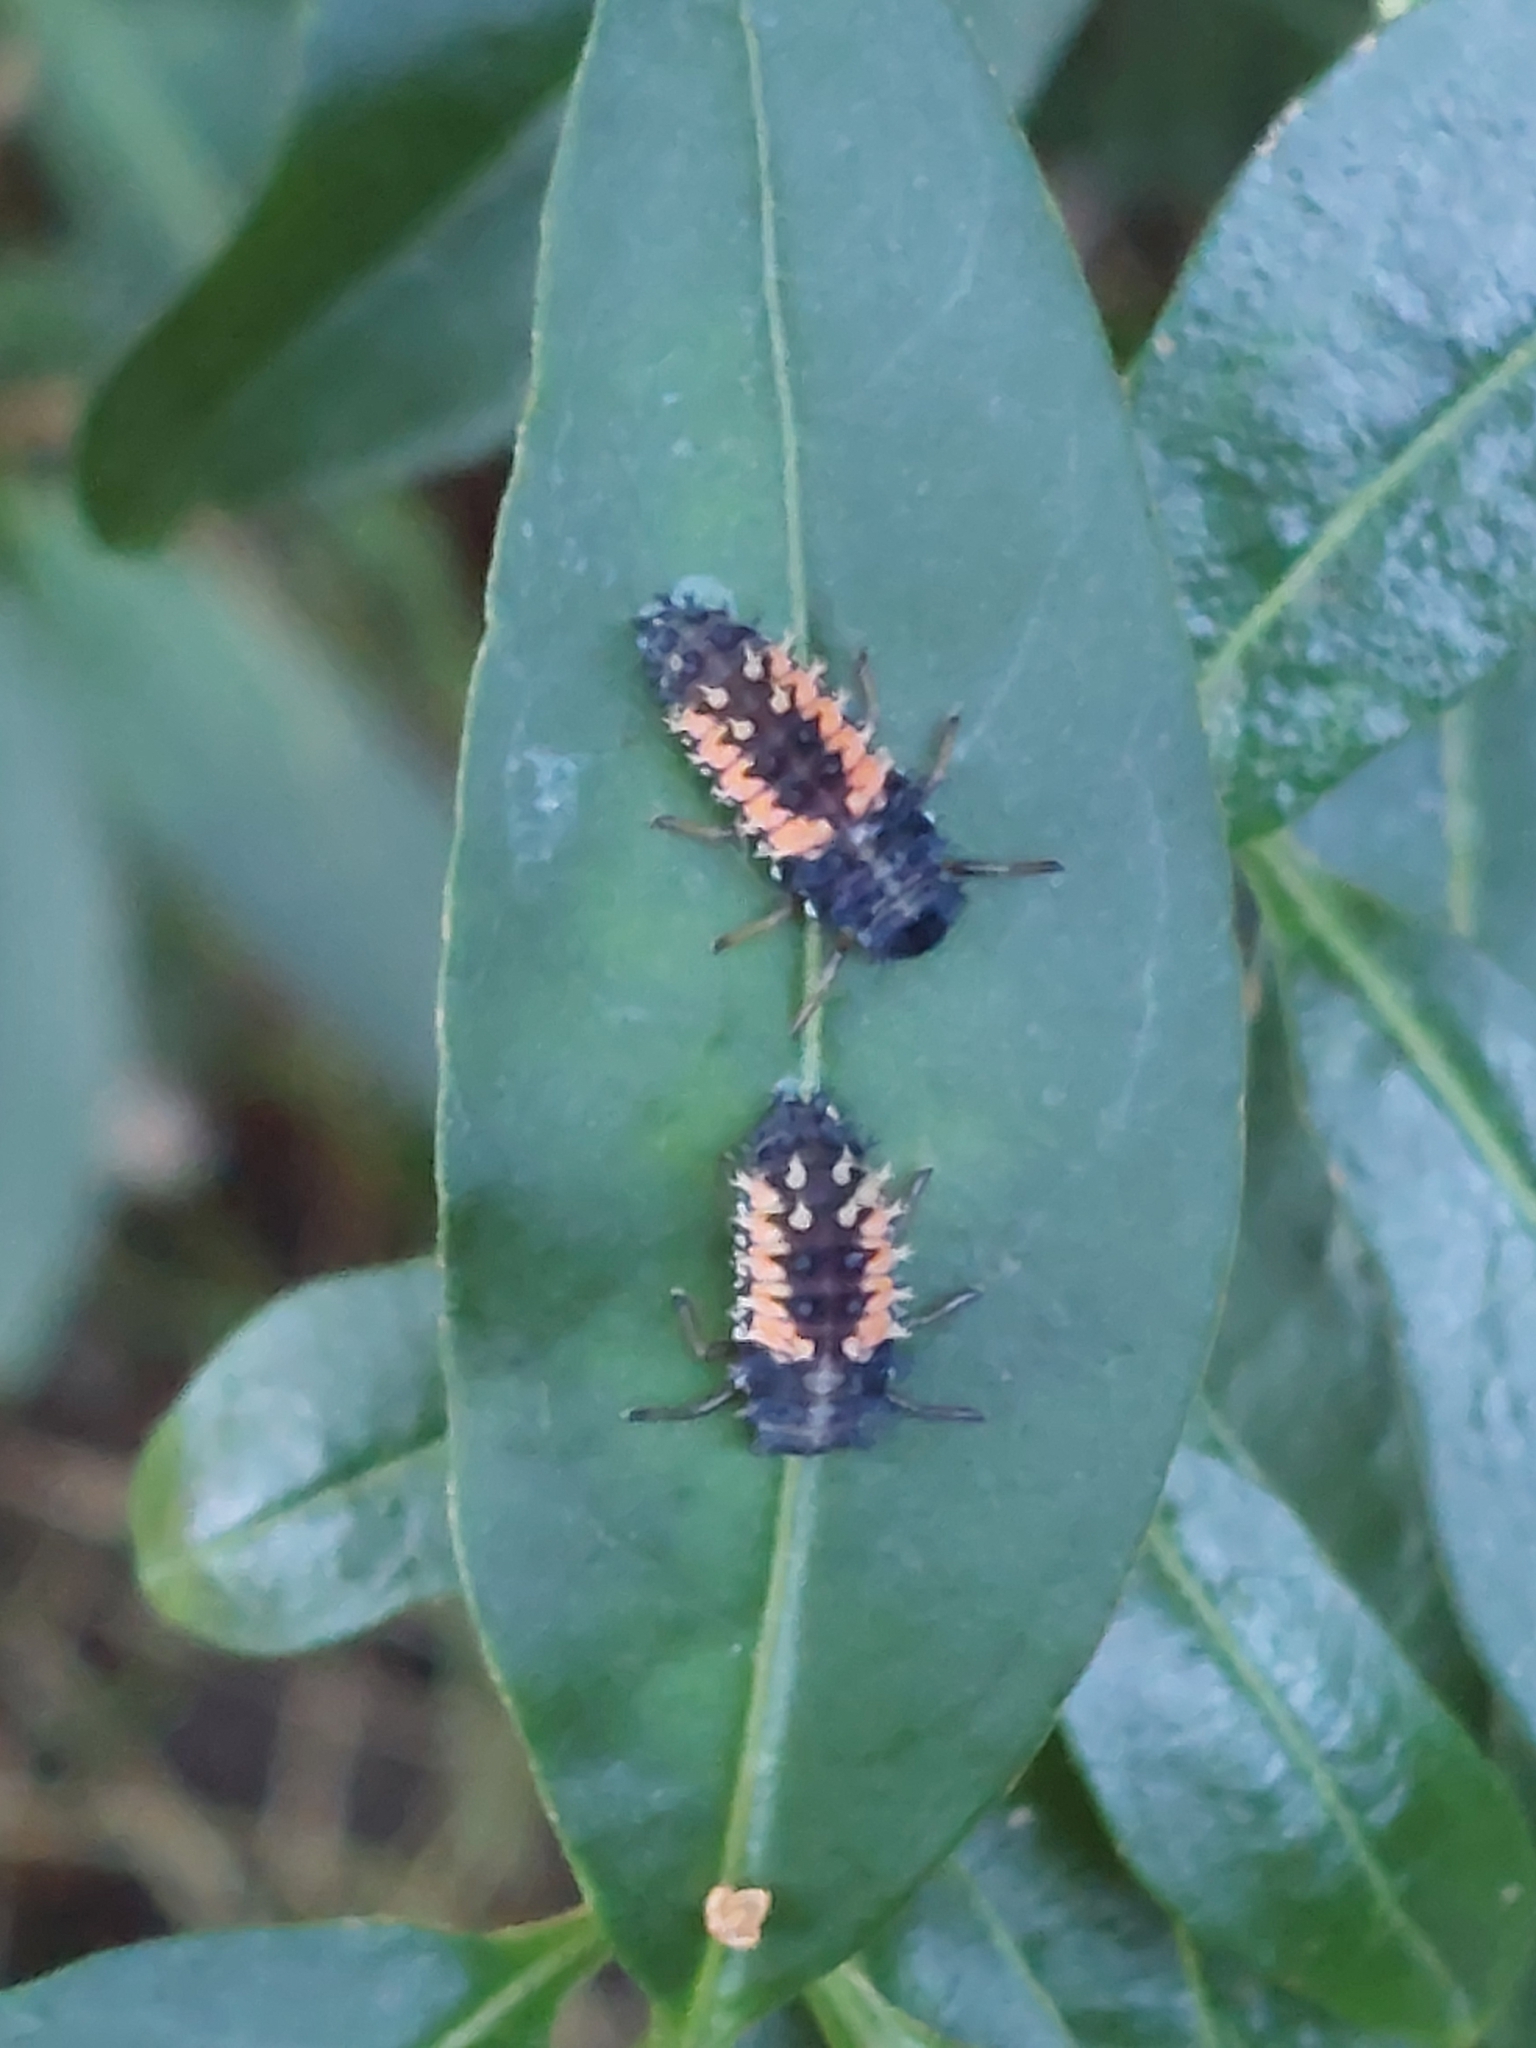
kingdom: Animalia
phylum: Arthropoda
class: Insecta
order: Coleoptera
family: Coccinellidae
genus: Harmonia
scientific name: Harmonia axyridis
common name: Harlequin ladybird
